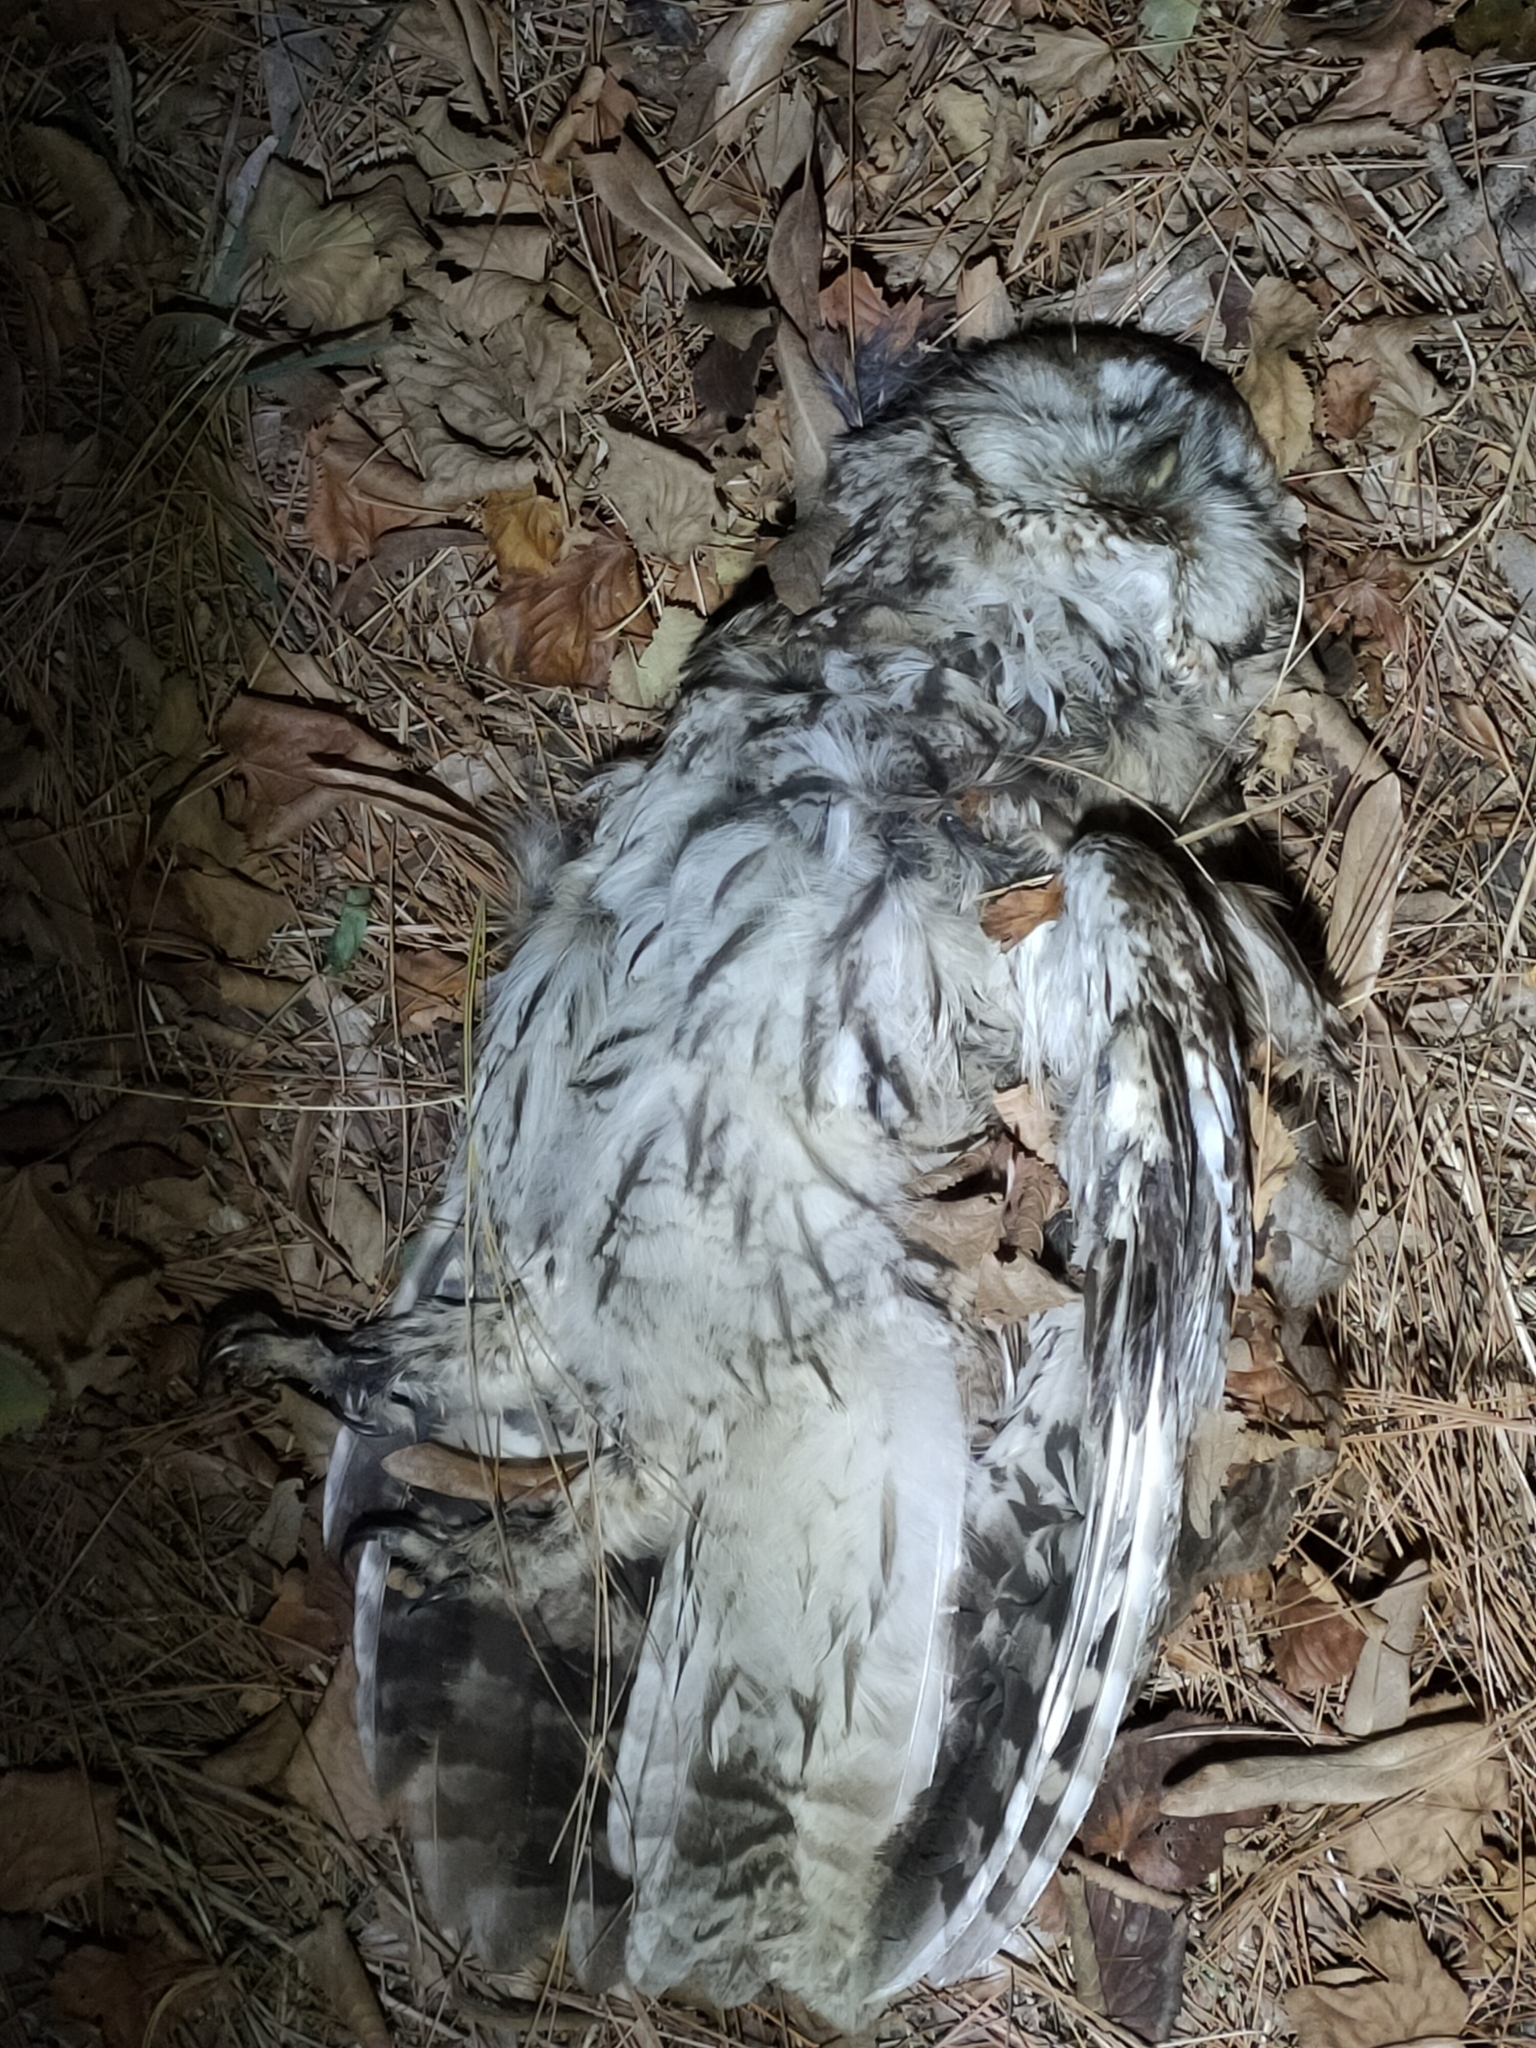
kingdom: Animalia
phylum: Chordata
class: Aves
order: Strigiformes
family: Strigidae
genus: Strix
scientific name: Strix aluco
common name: Tawny owl
